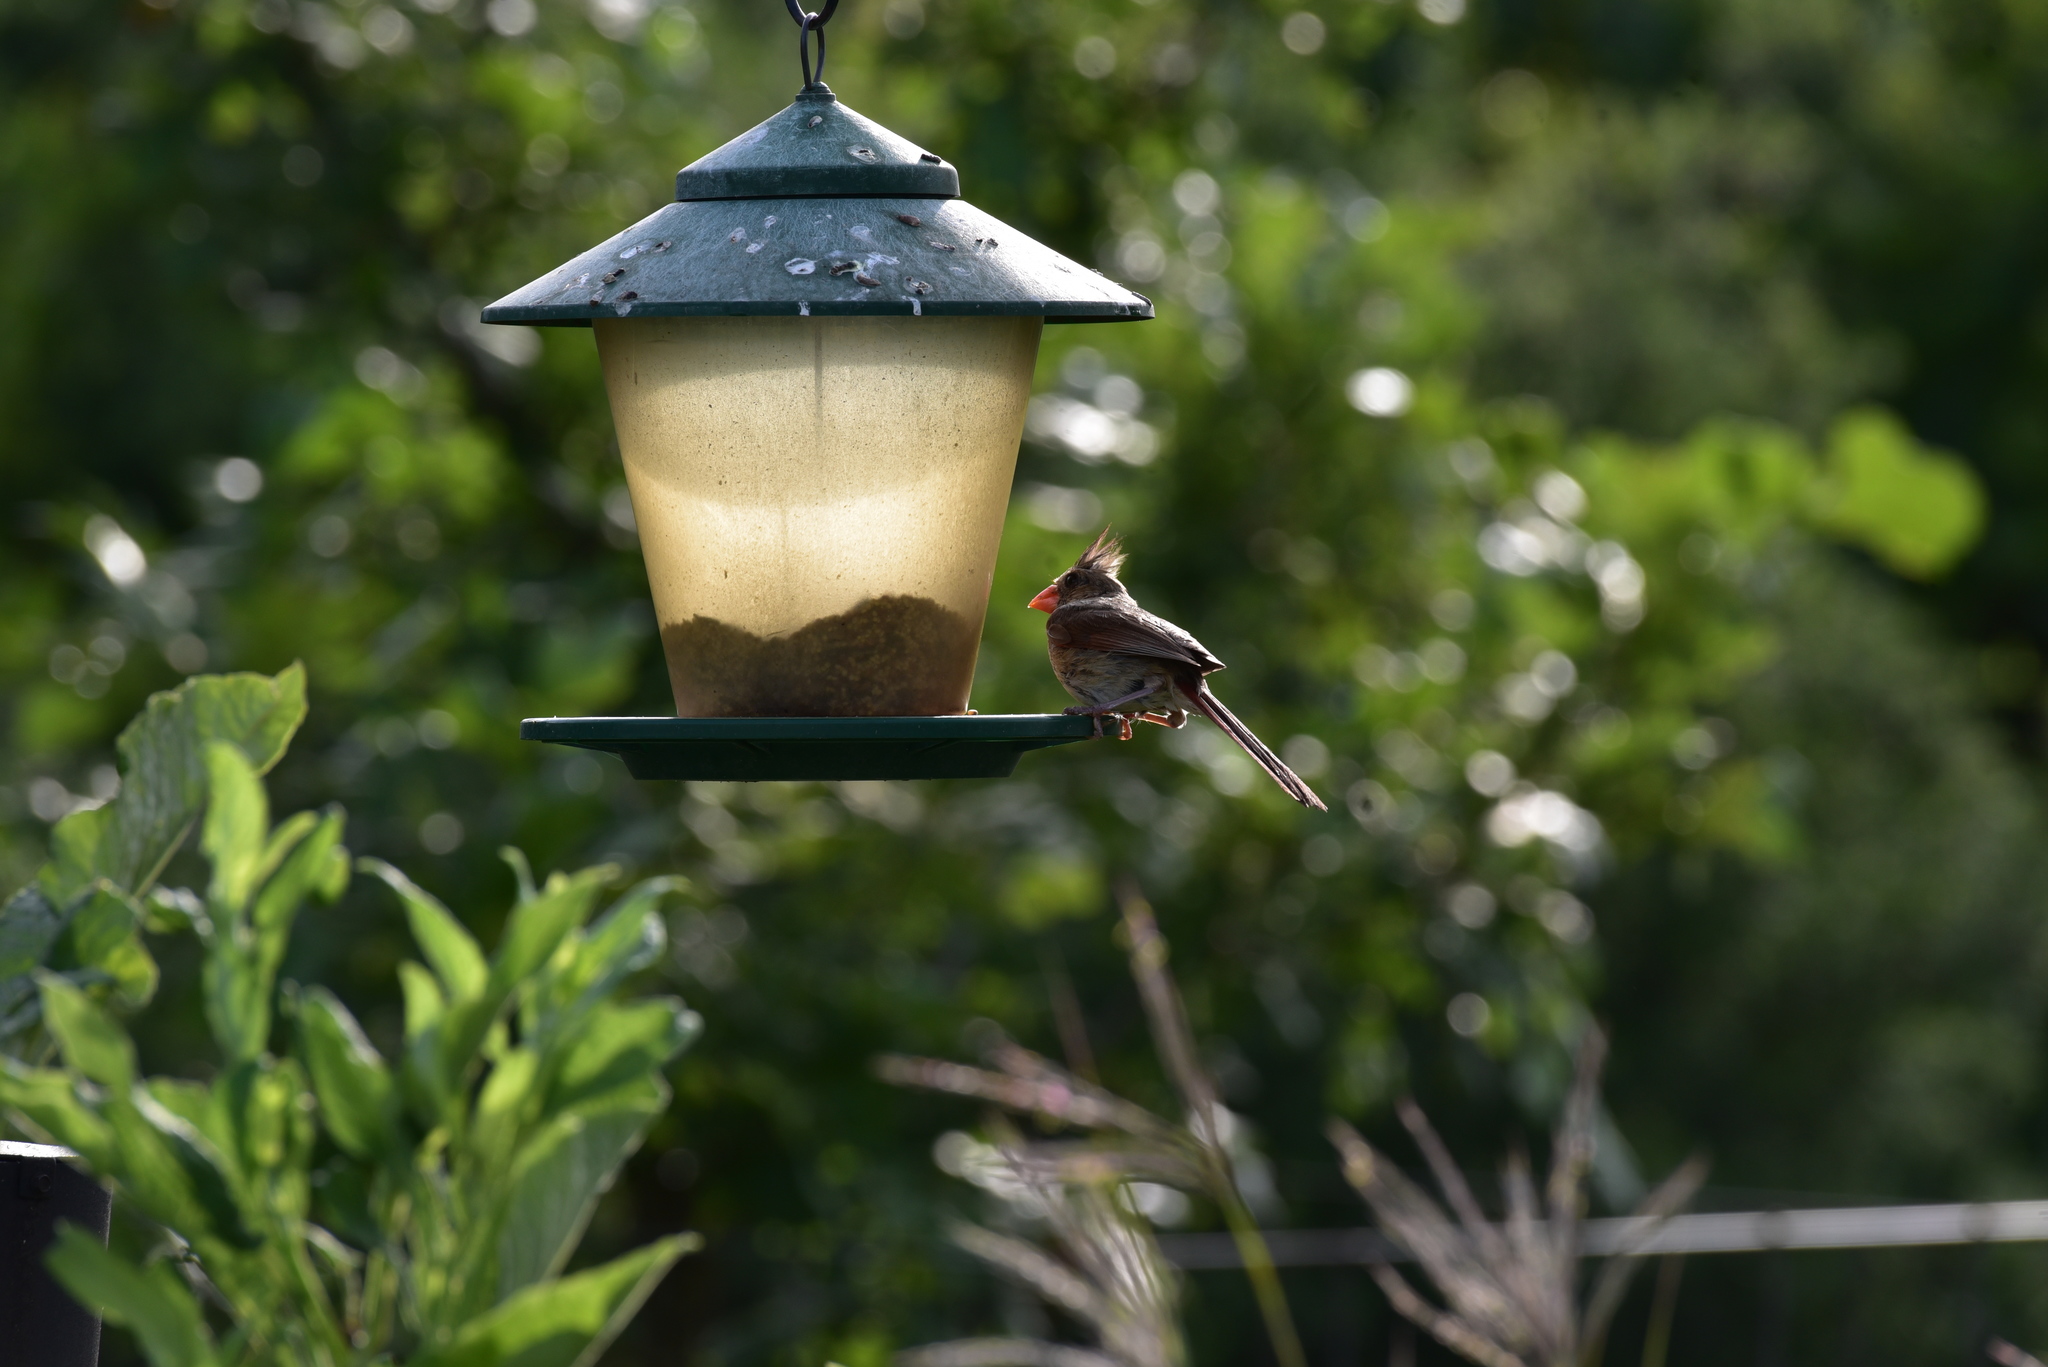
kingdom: Animalia
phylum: Chordata
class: Aves
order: Passeriformes
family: Cardinalidae
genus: Cardinalis
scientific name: Cardinalis cardinalis
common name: Northern cardinal
